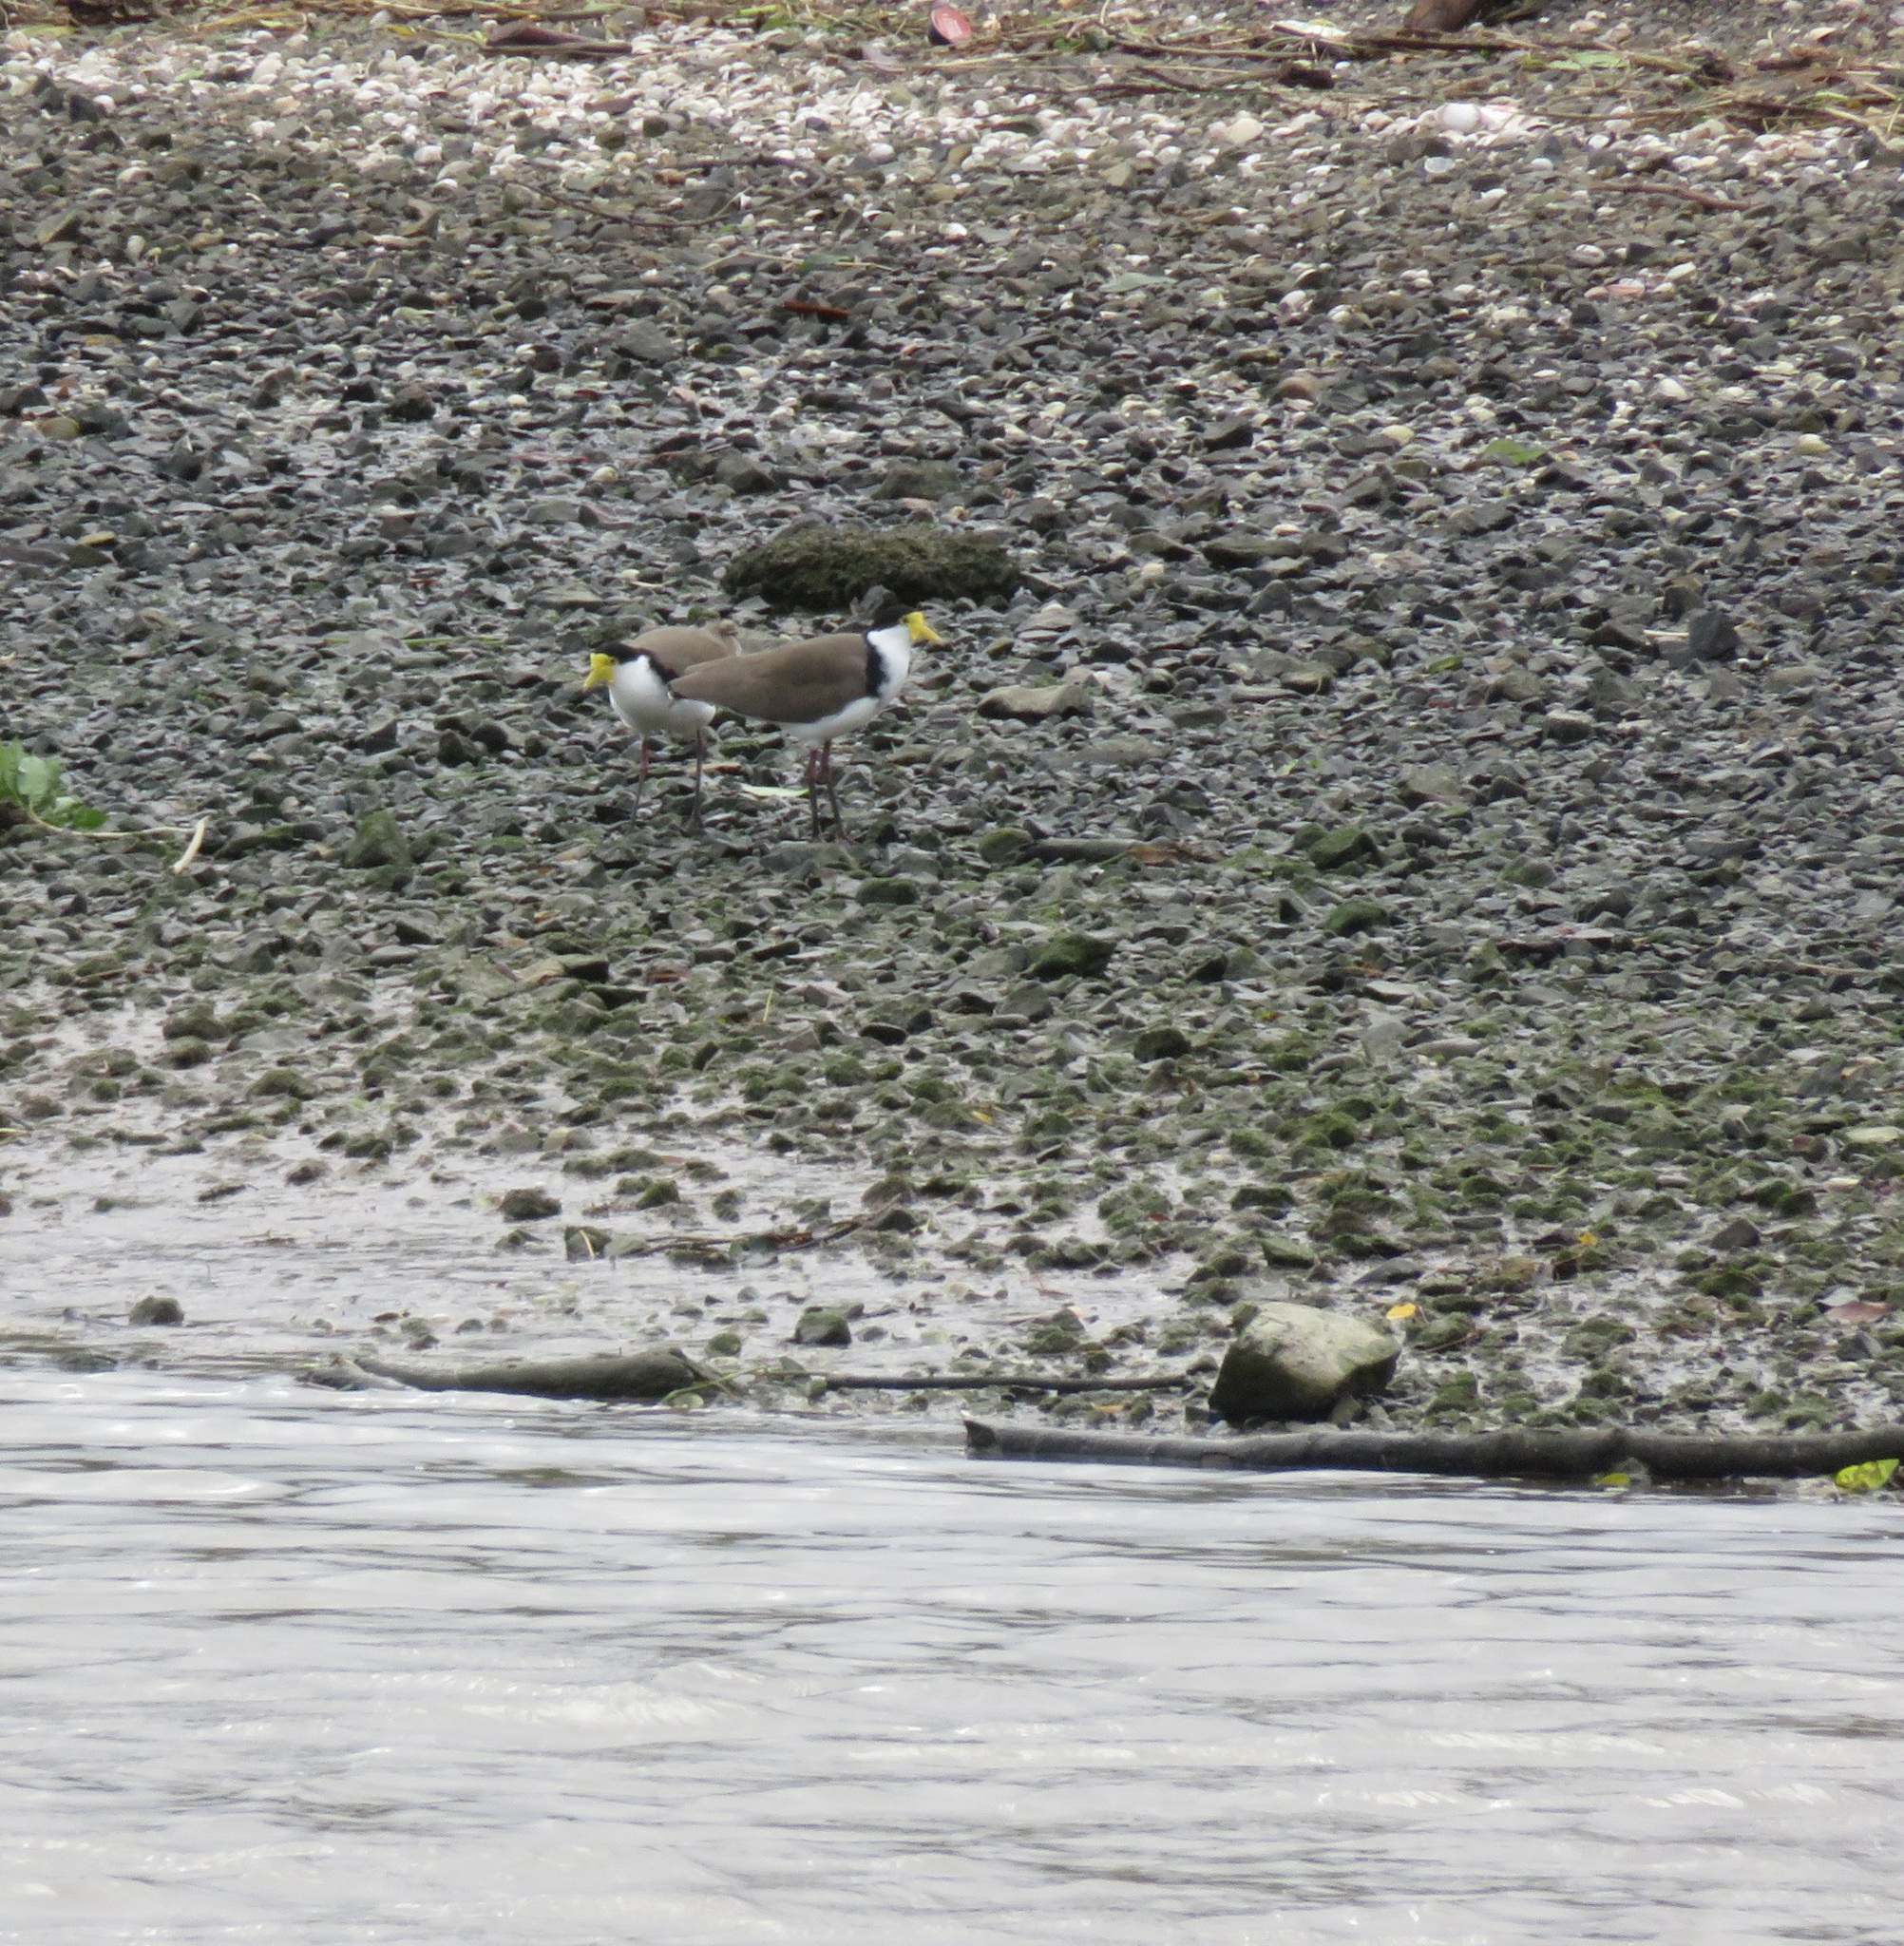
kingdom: Animalia
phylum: Chordata
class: Aves
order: Charadriiformes
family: Charadriidae
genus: Vanellus
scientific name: Vanellus miles
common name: Masked lapwing
